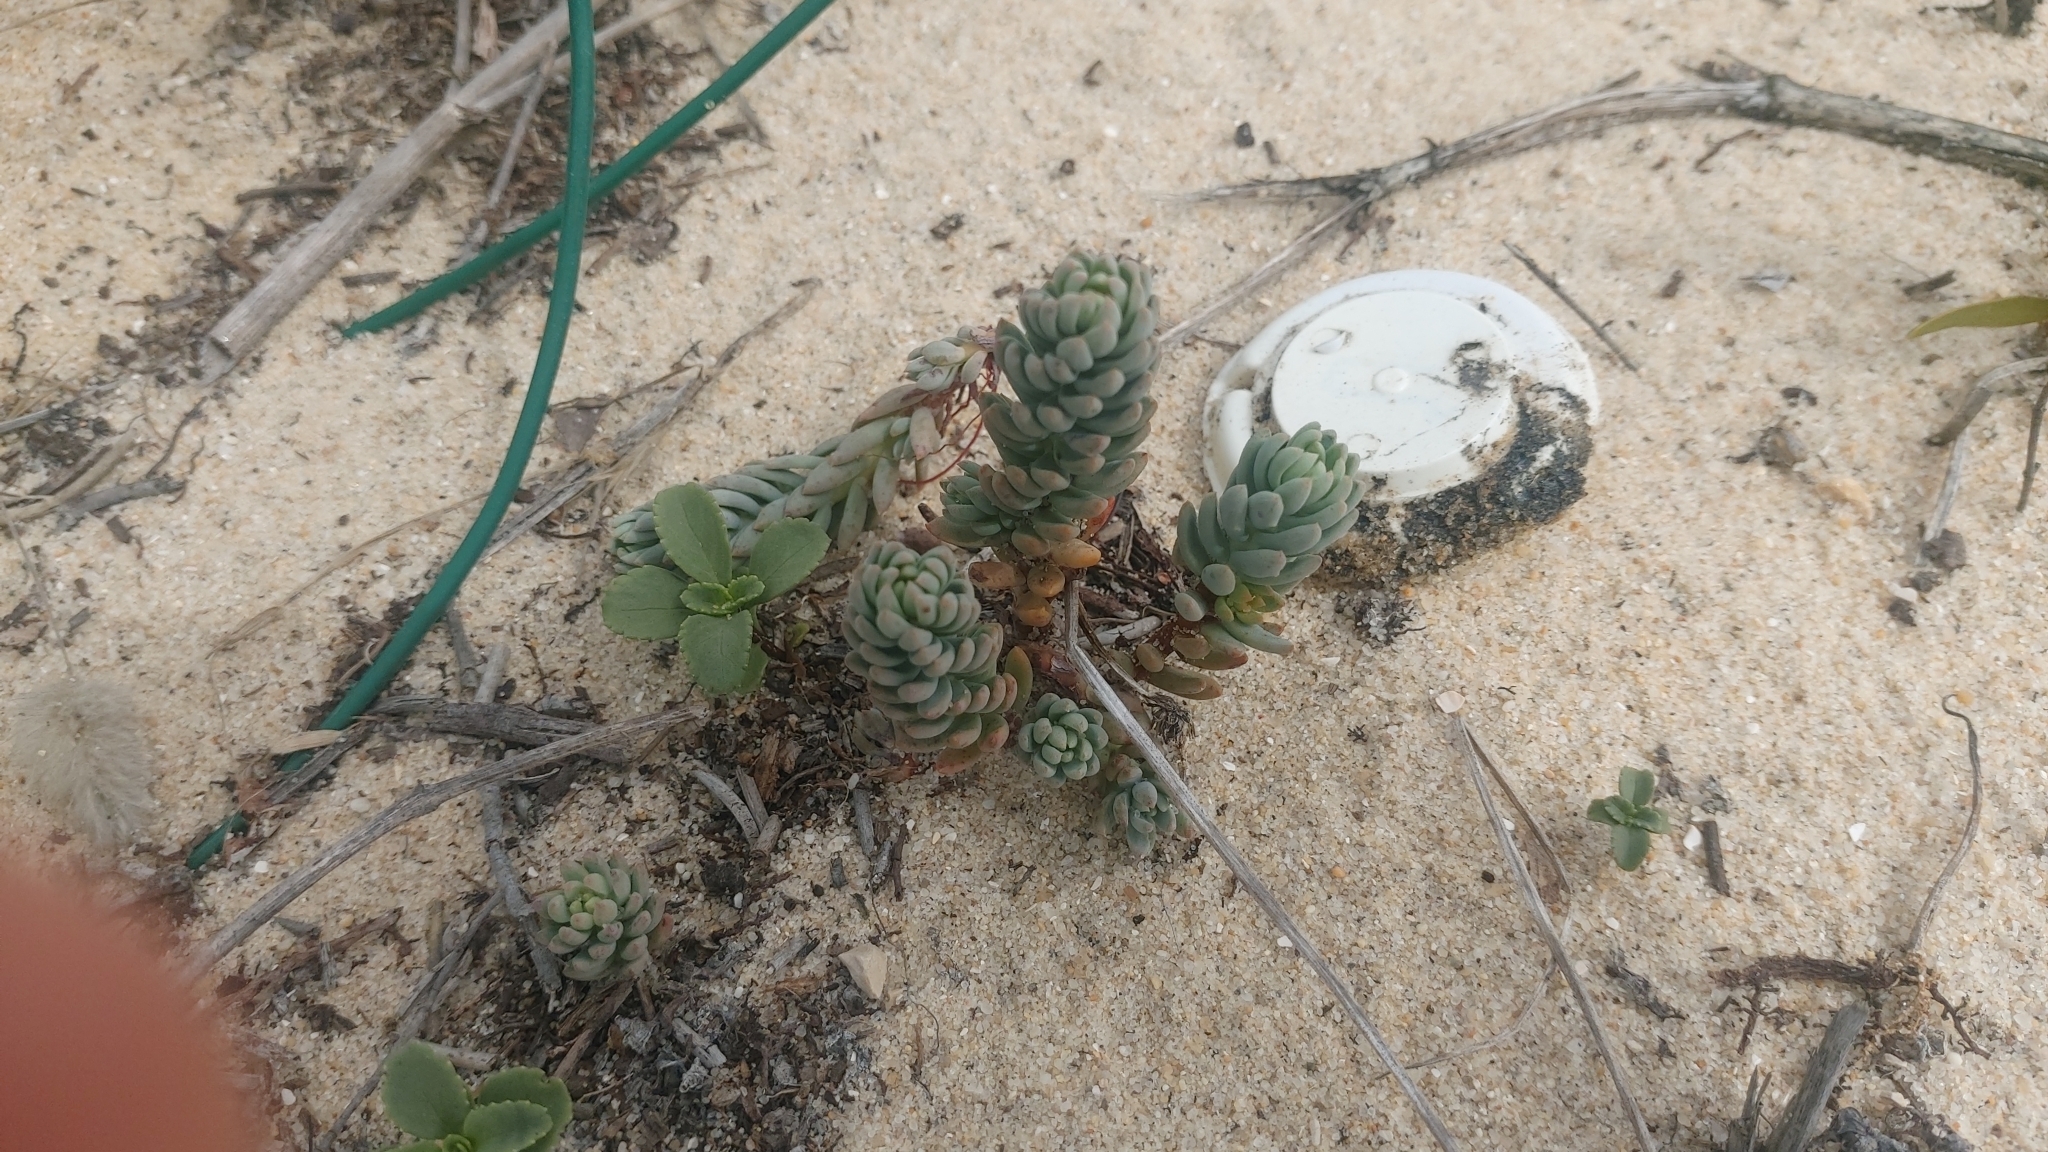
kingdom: Plantae
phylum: Tracheophyta
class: Magnoliopsida
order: Saxifragales
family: Crassulaceae
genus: Petrosedum
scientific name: Petrosedum sediforme
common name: Pale stonecrop
